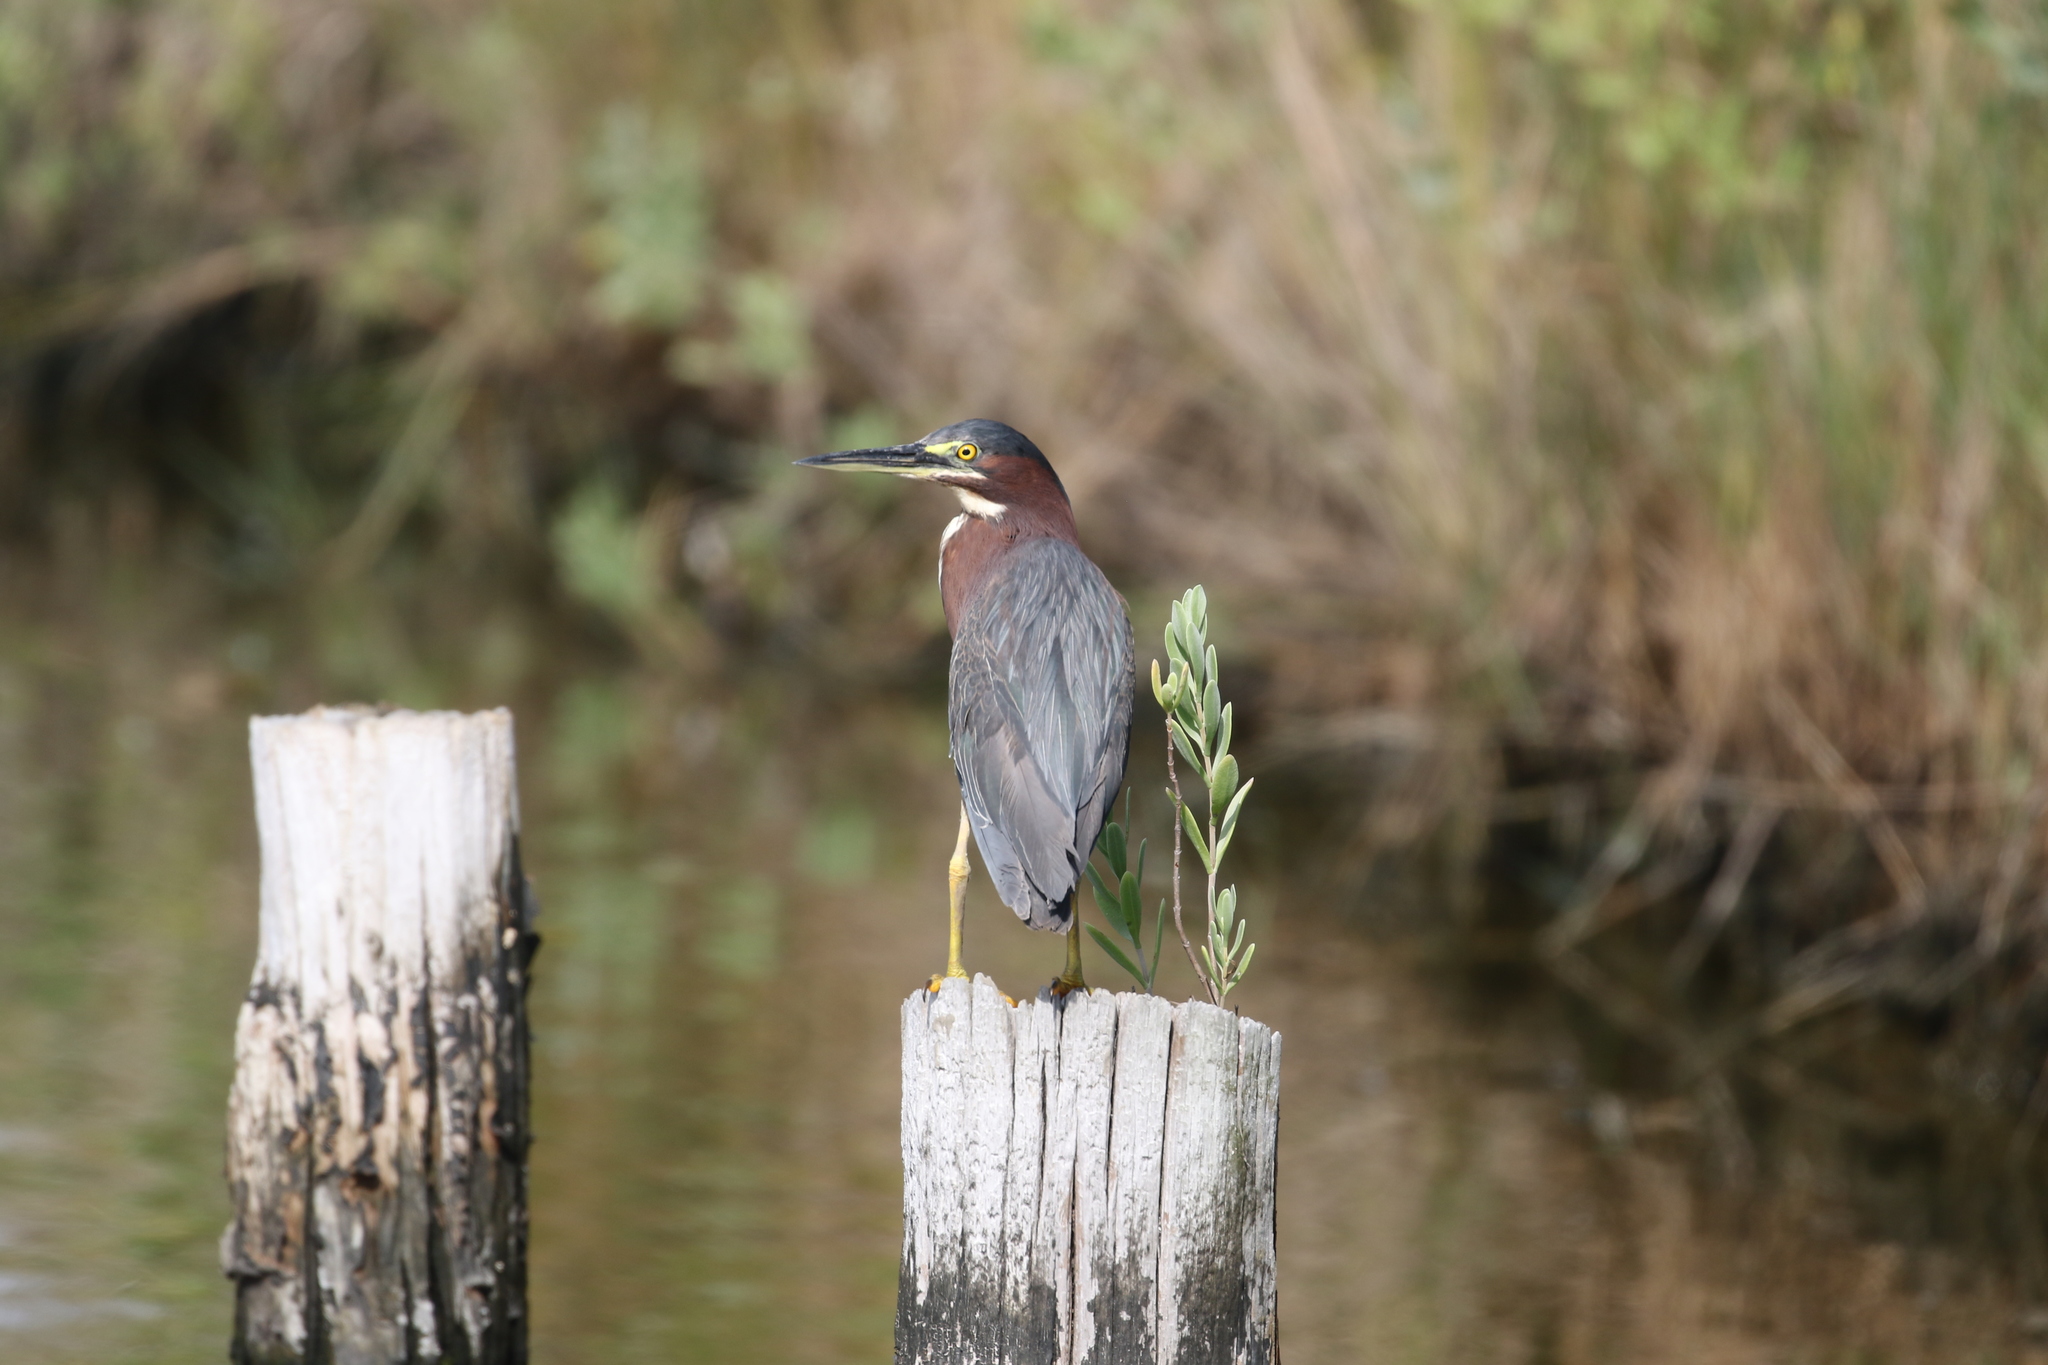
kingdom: Animalia
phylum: Chordata
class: Aves
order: Pelecaniformes
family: Ardeidae
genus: Butorides
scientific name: Butorides virescens
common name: Green heron
